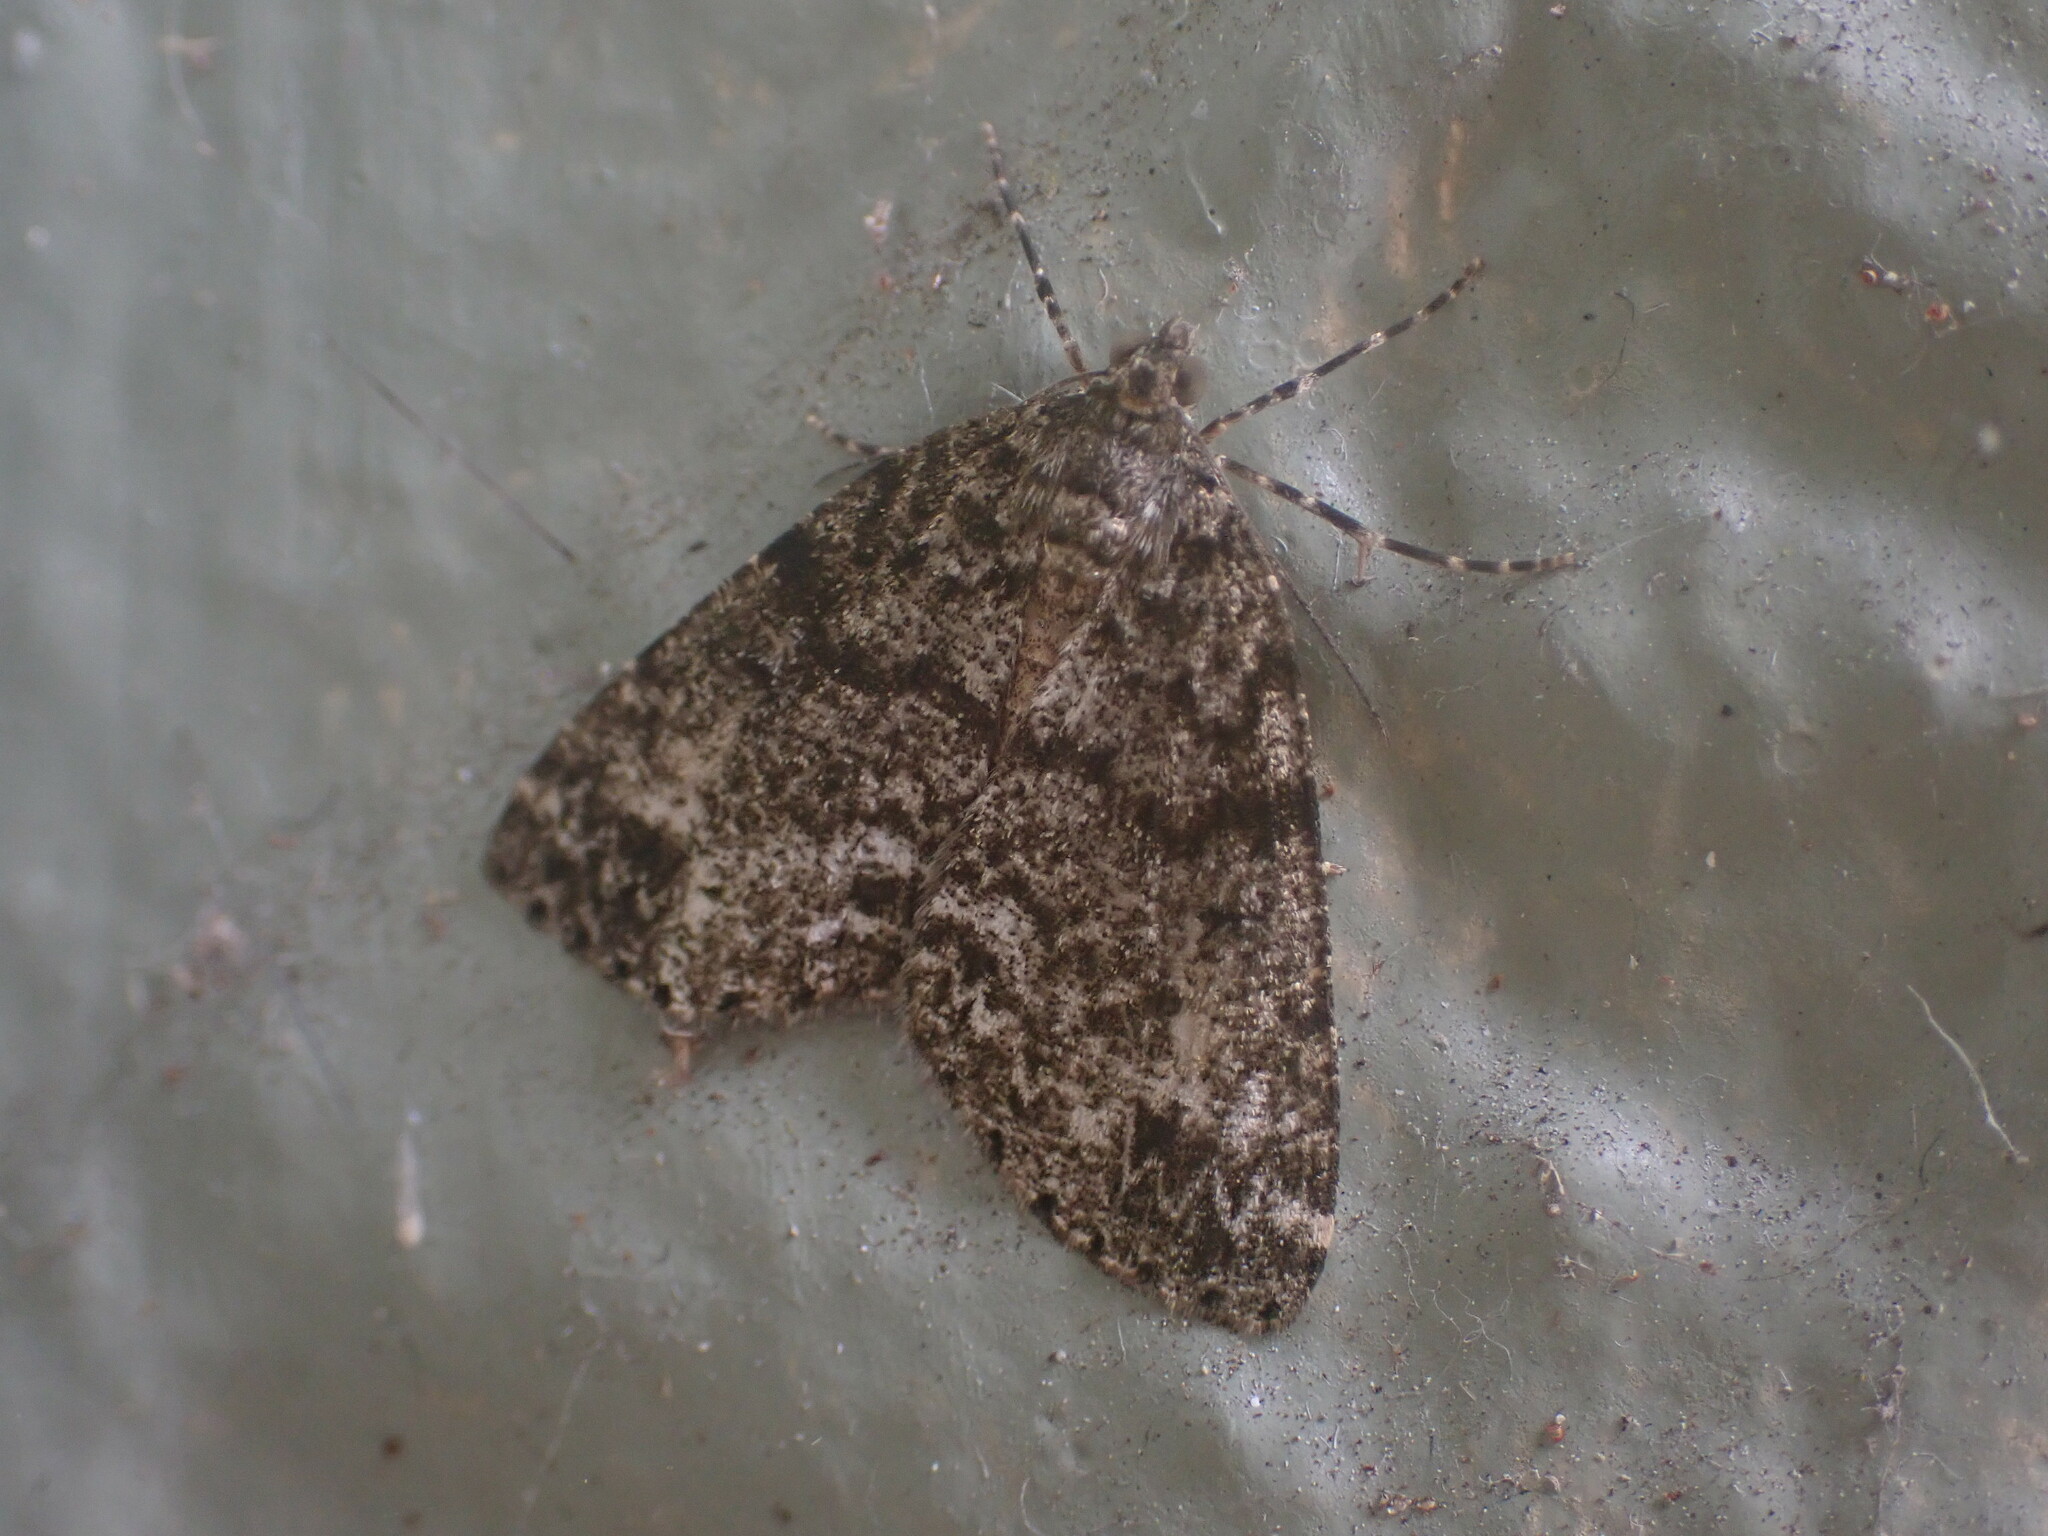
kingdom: Animalia
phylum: Arthropoda
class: Insecta
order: Lepidoptera
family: Geometridae
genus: Pseudocoremia
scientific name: Pseudocoremia indistincta
